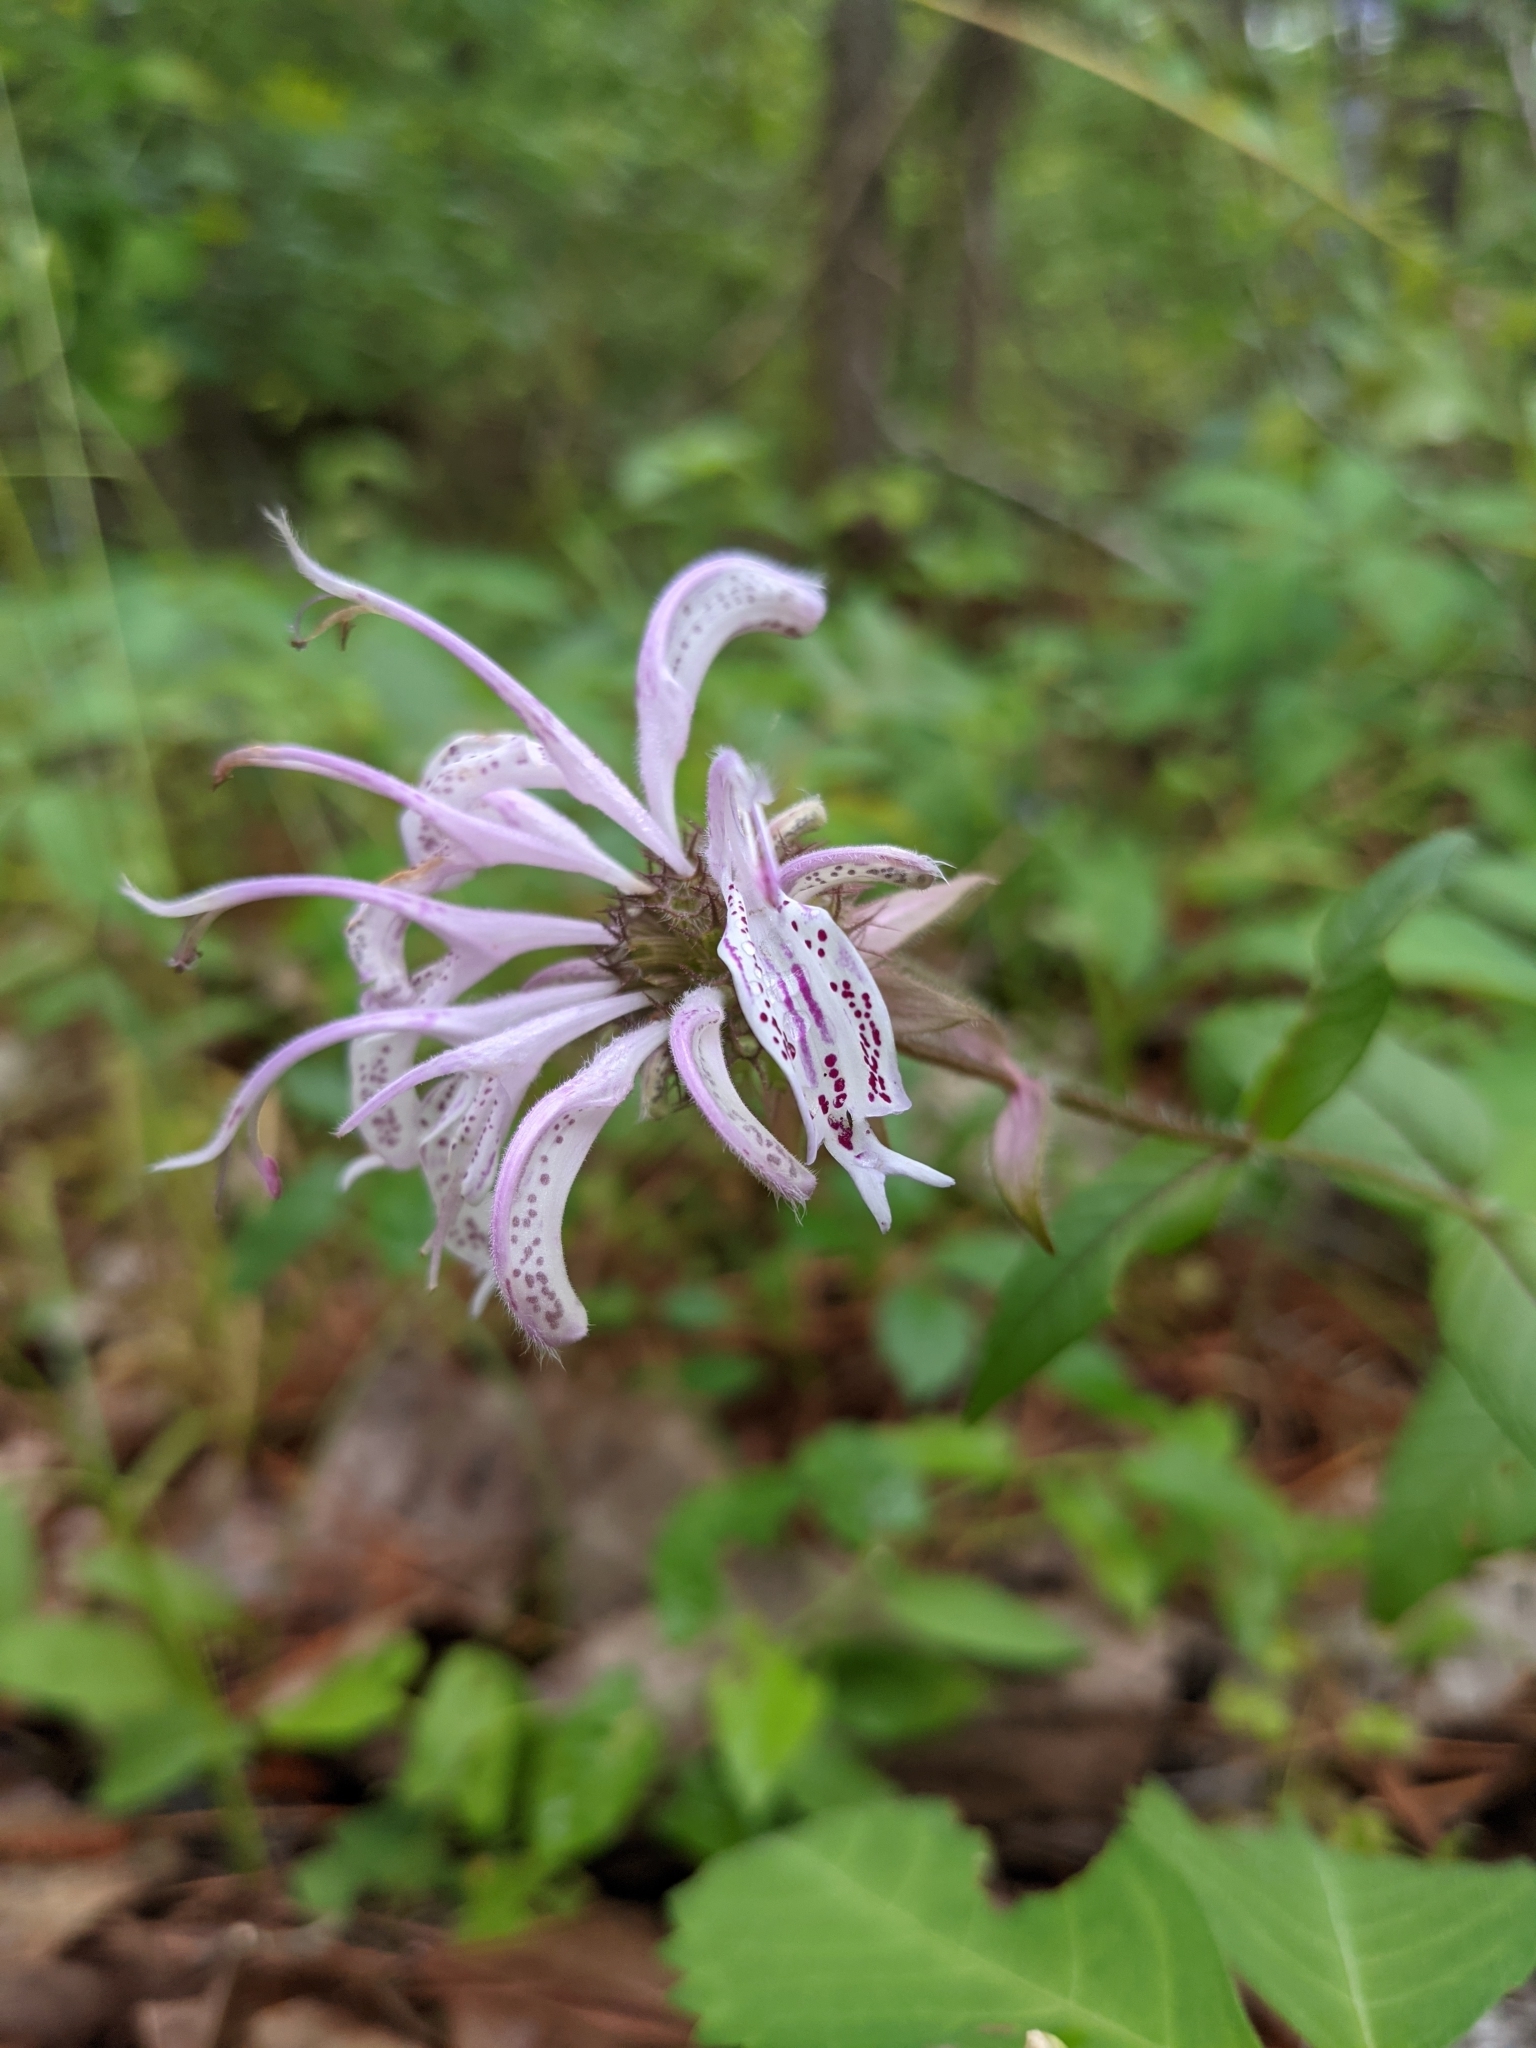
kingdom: Plantae
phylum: Tracheophyta
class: Magnoliopsida
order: Lamiales
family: Lamiaceae
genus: Monarda
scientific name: Monarda bradburiana
